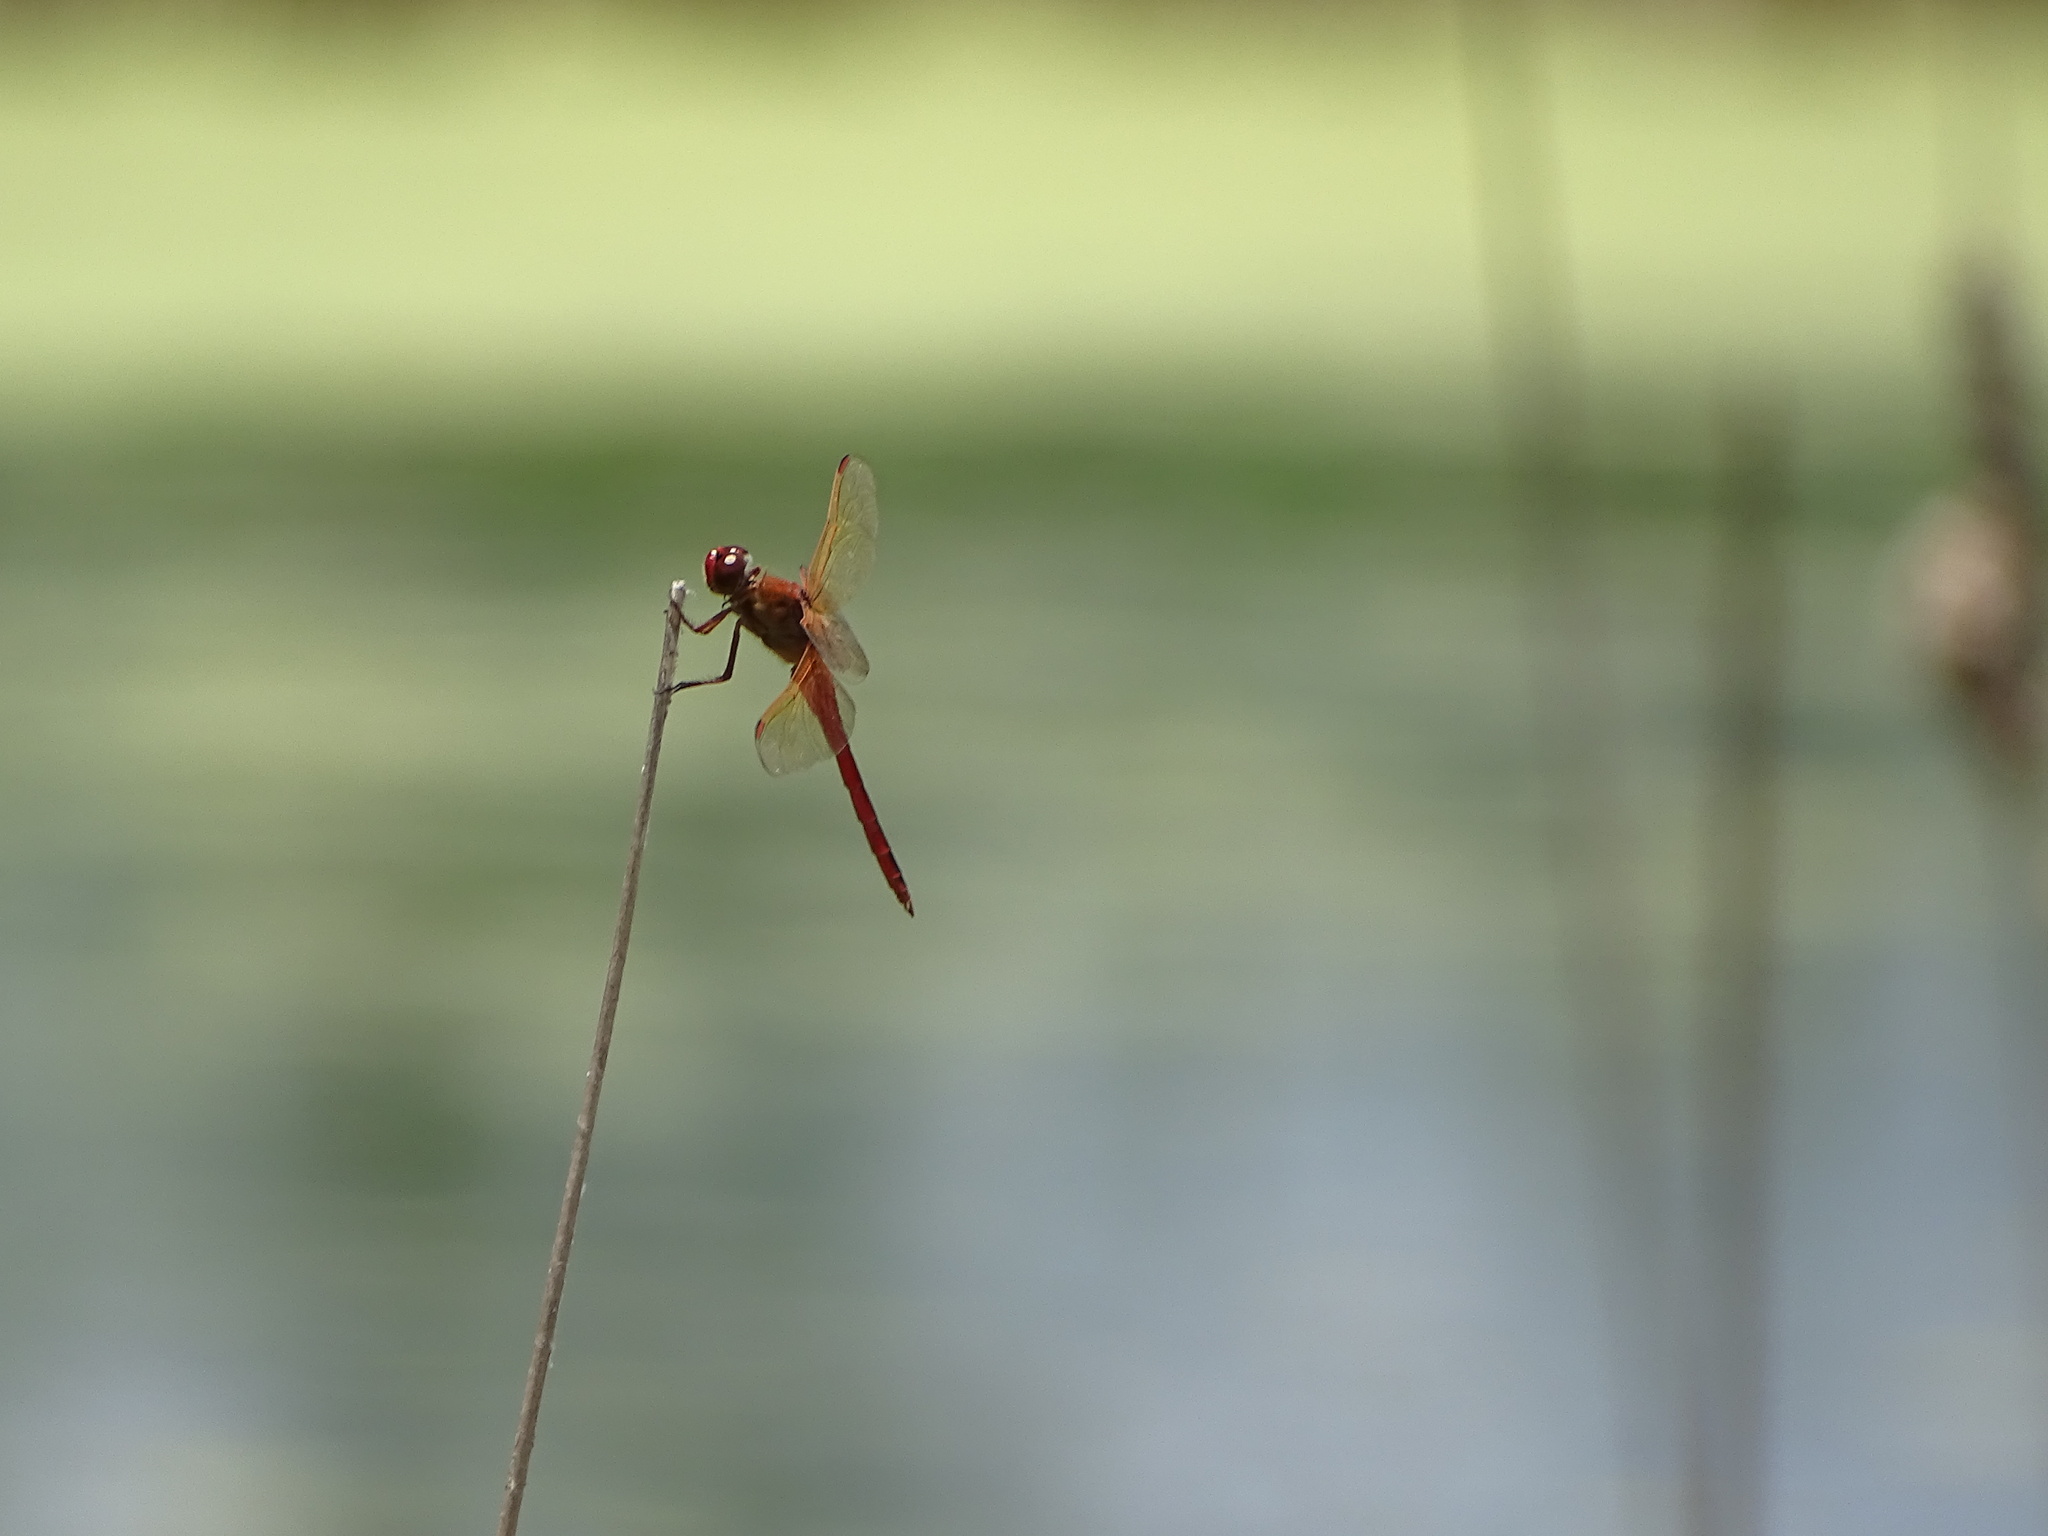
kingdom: Animalia
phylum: Arthropoda
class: Insecta
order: Odonata
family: Libellulidae
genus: Libellula
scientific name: Libellula needhami
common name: Needham's skimmer
